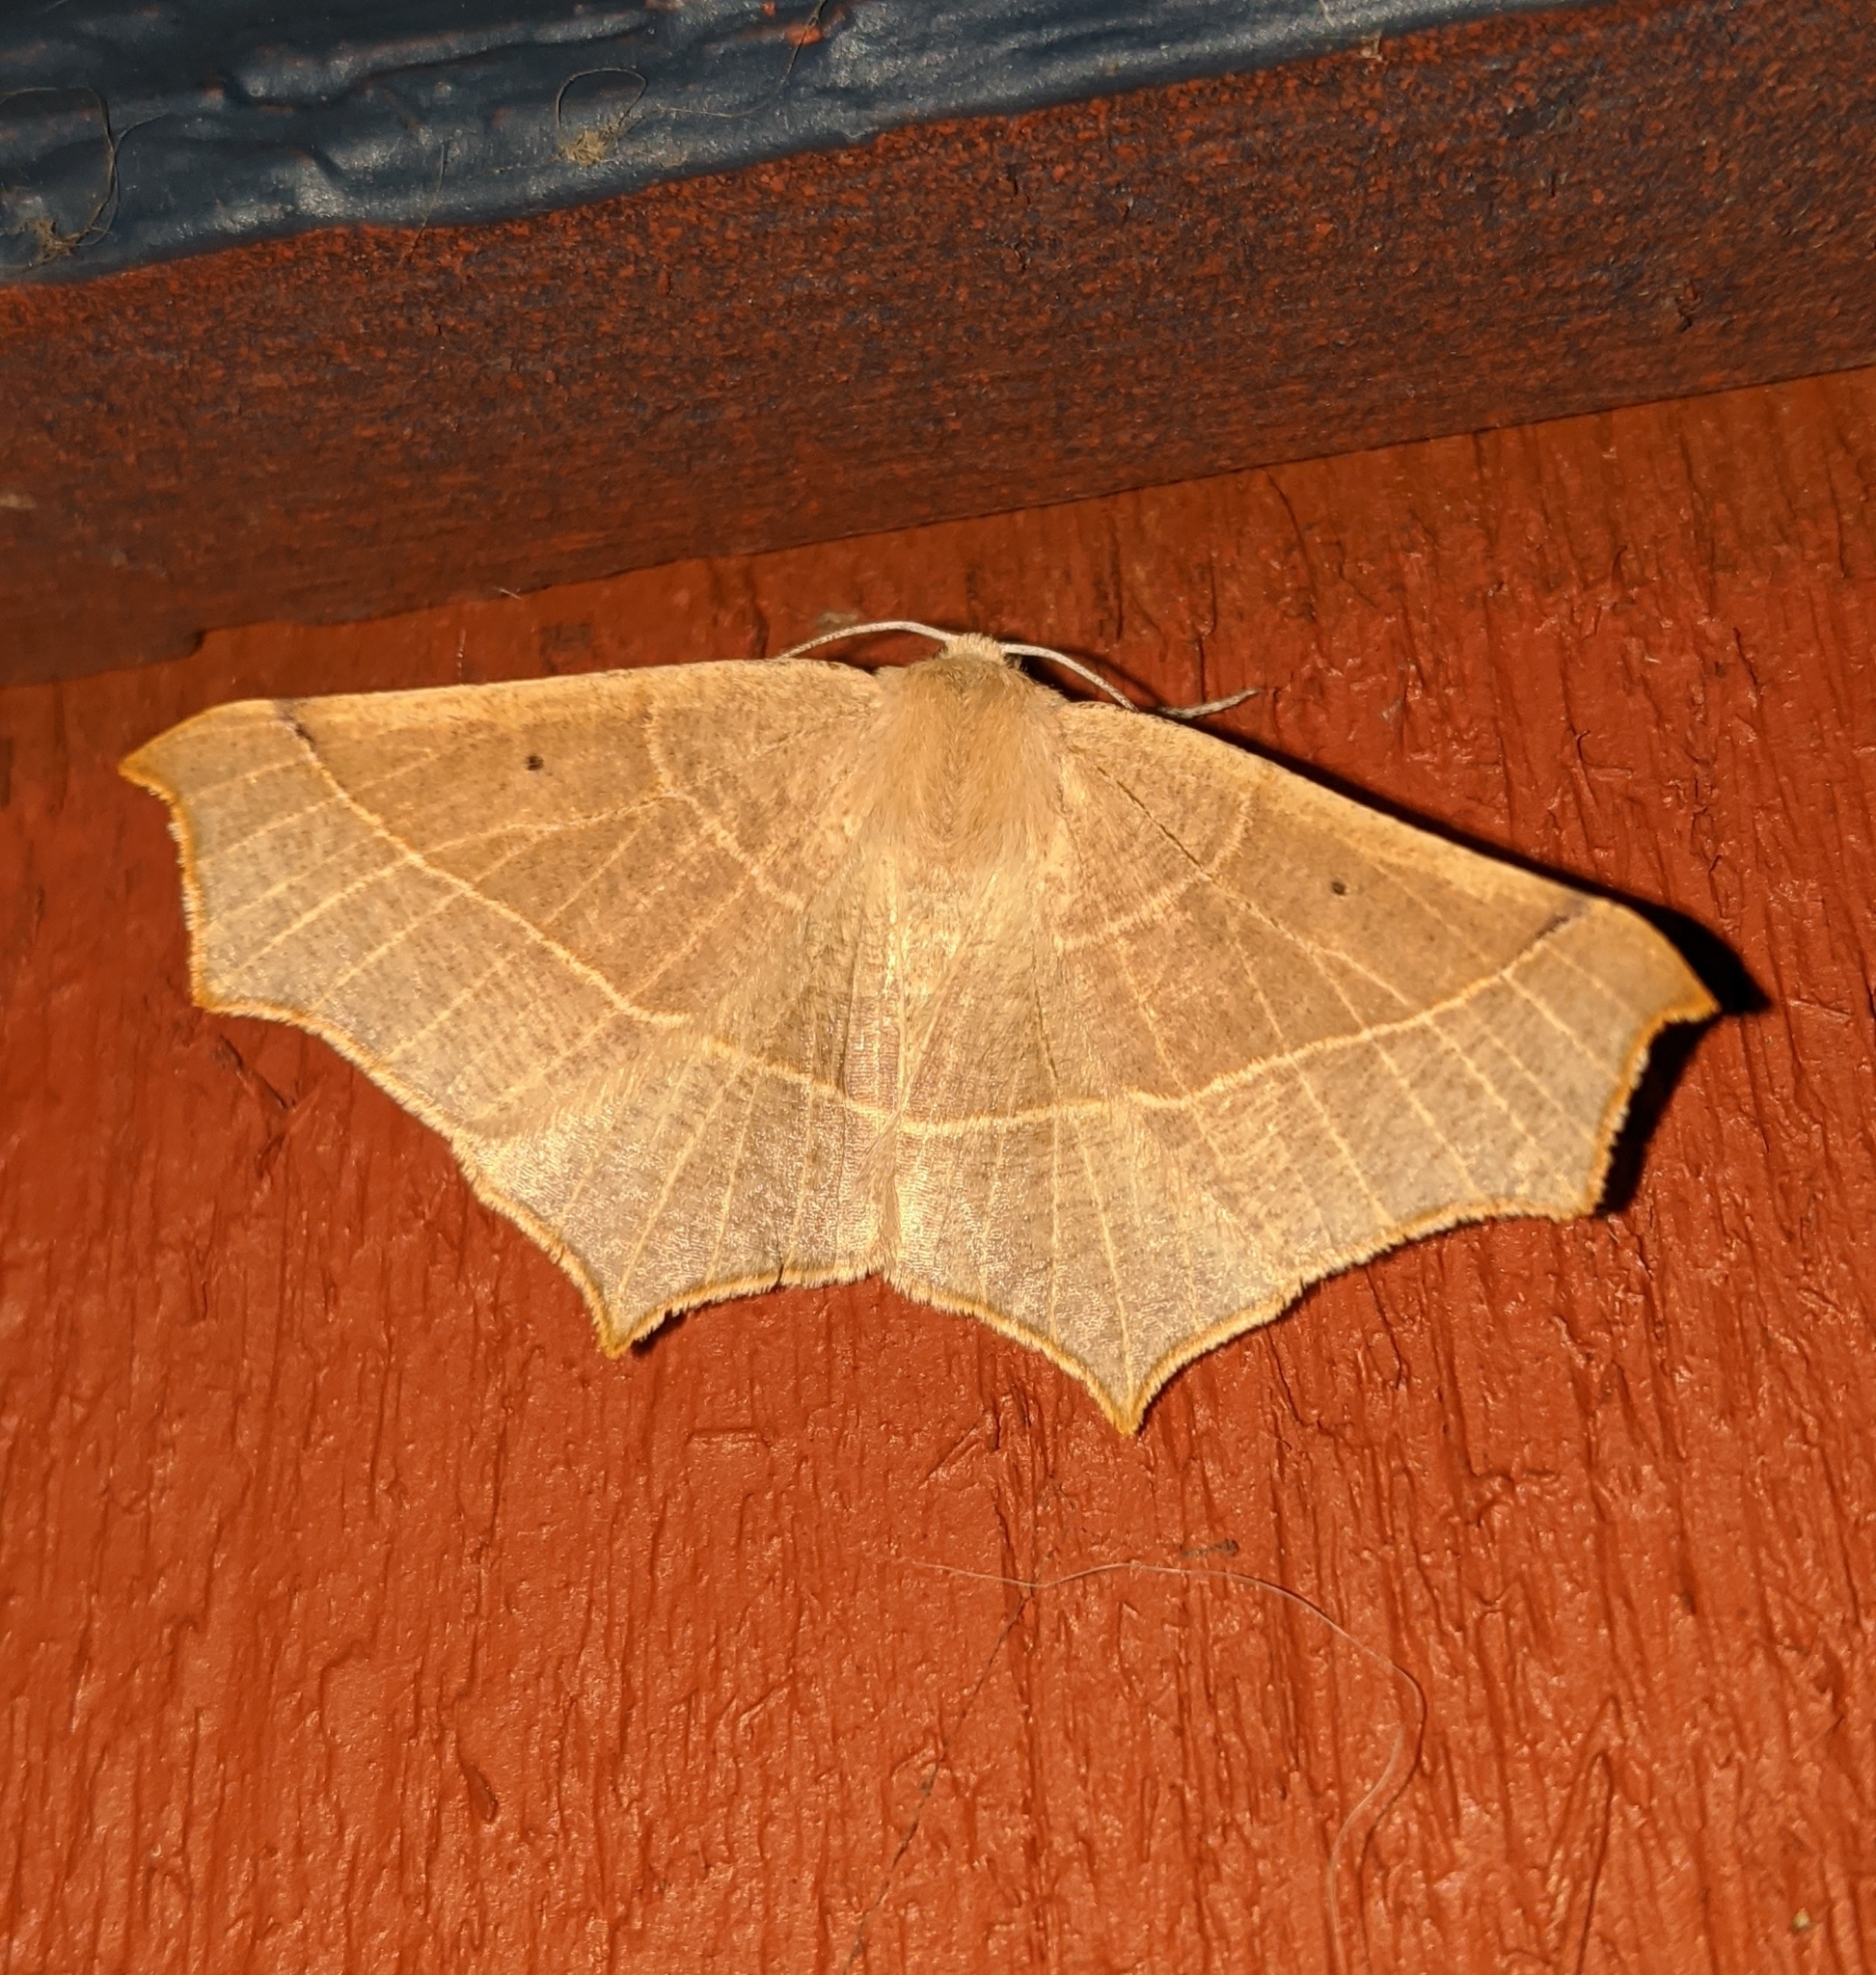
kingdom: Animalia
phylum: Arthropoda
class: Insecta
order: Lepidoptera
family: Geometridae
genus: Tetracis
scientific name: Tetracis cervinaria
